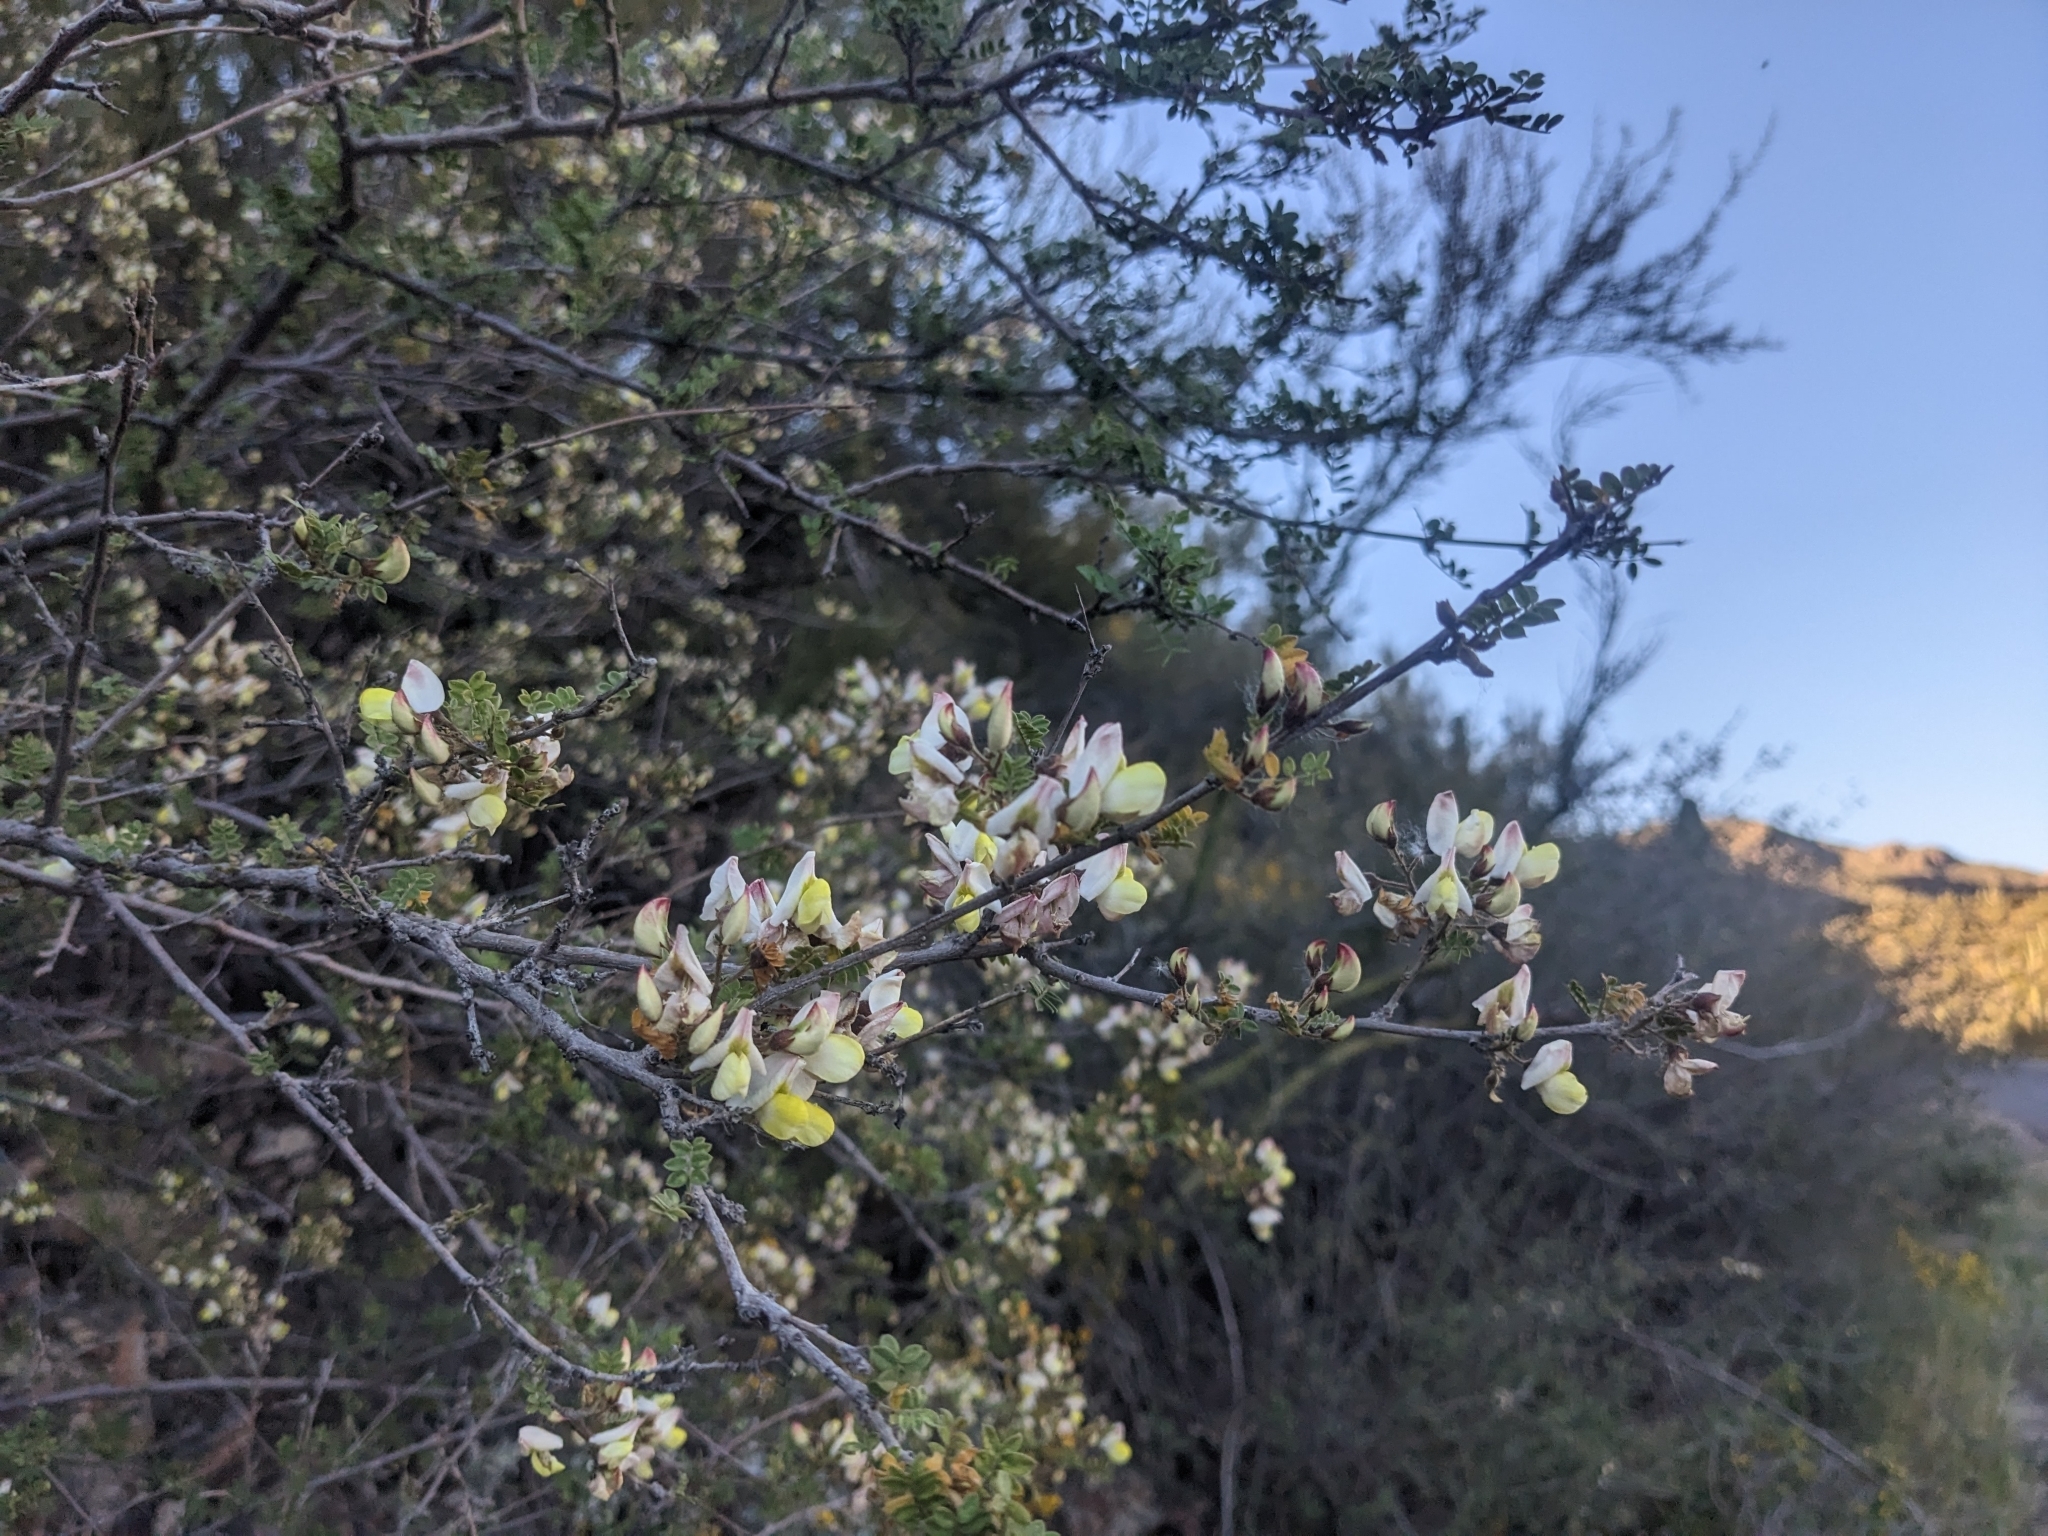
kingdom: Plantae
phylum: Tracheophyta
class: Magnoliopsida
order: Fabales
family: Fabaceae
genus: Coursetia
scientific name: Coursetia glandulosa
